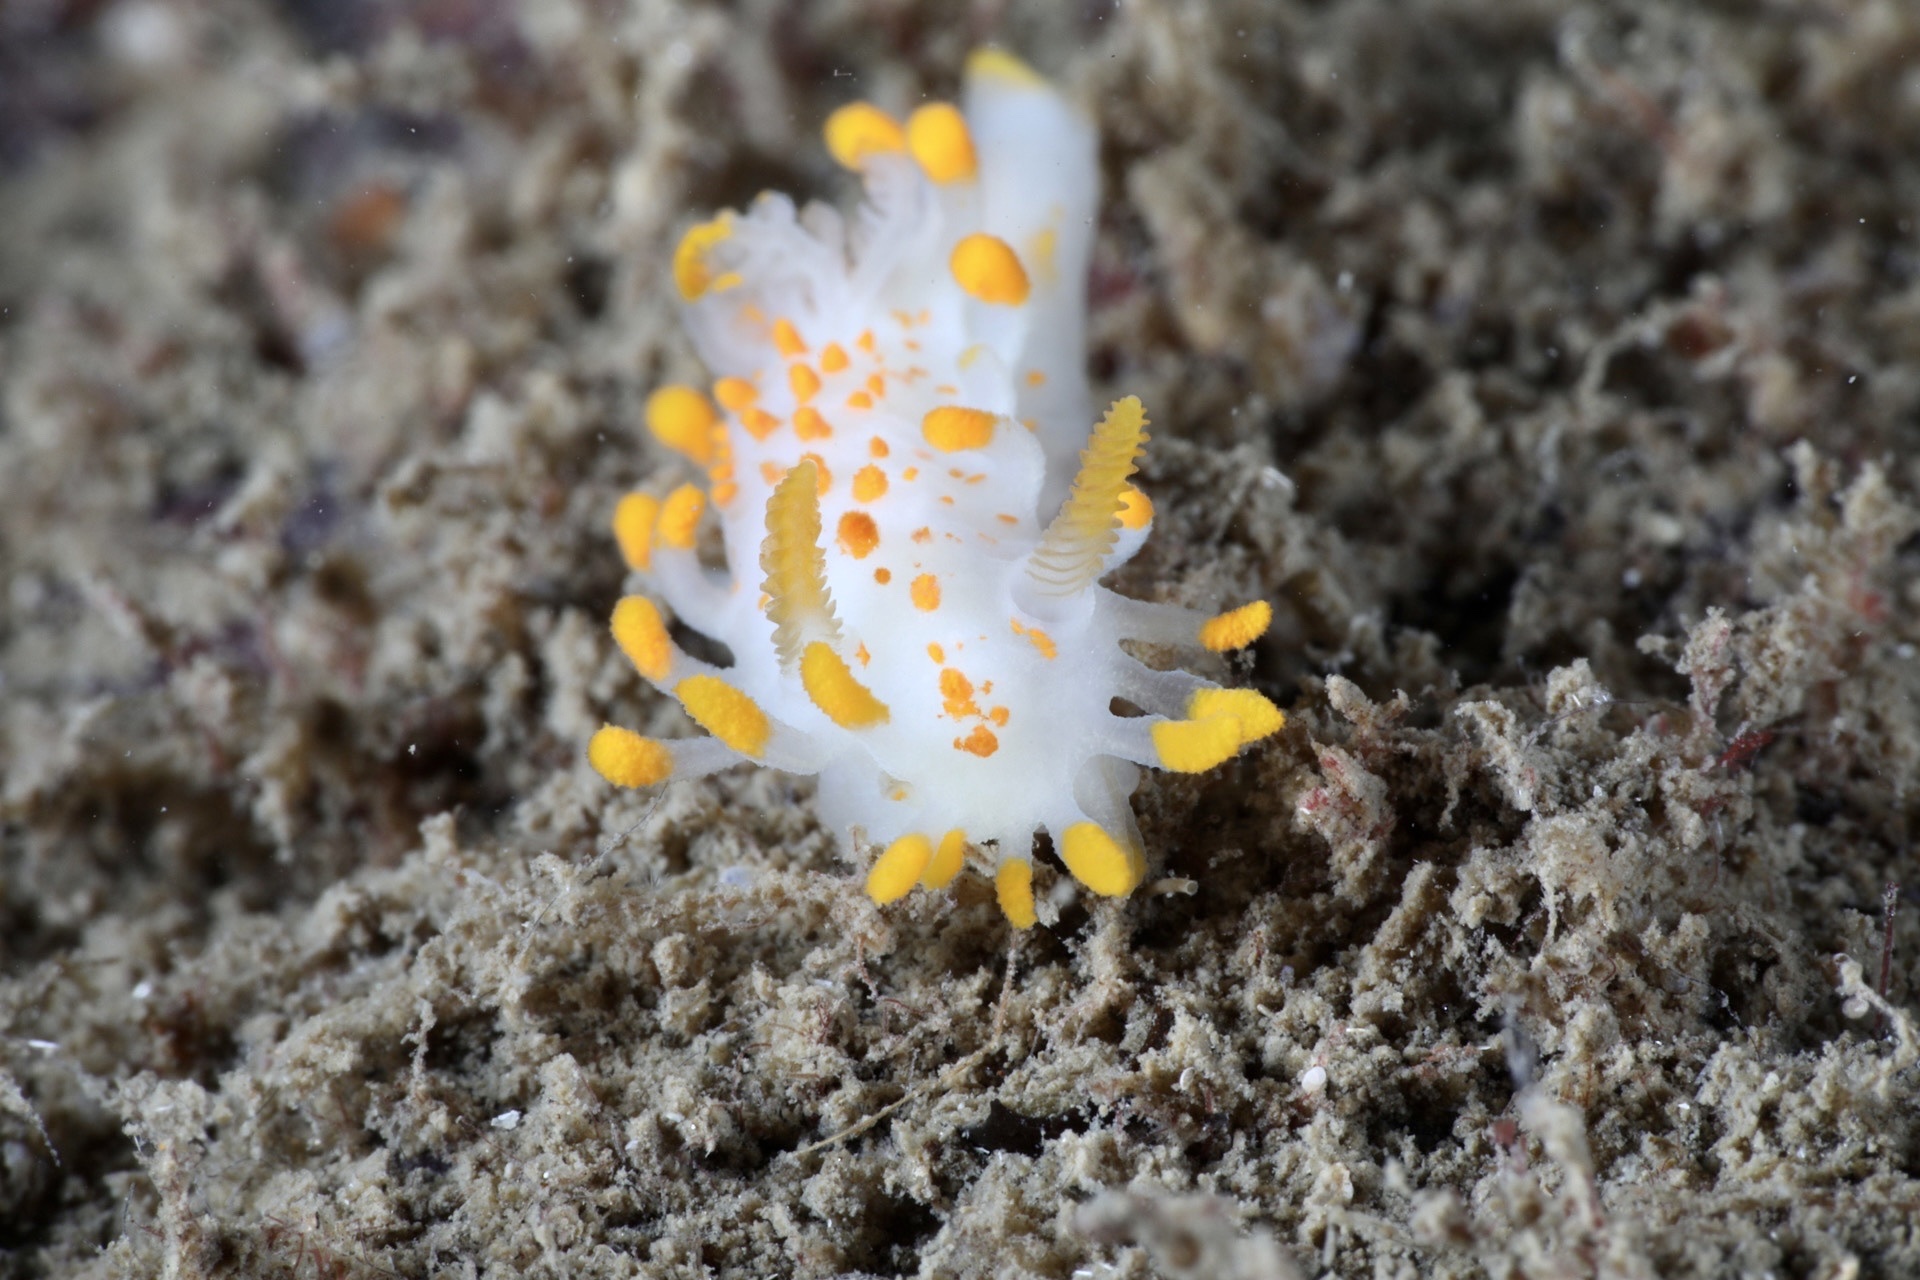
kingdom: Animalia
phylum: Mollusca
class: Gastropoda
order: Nudibranchia
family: Polyceridae
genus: Limacia
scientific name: Limacia clavigera
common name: Orange-clubbed sea slug
